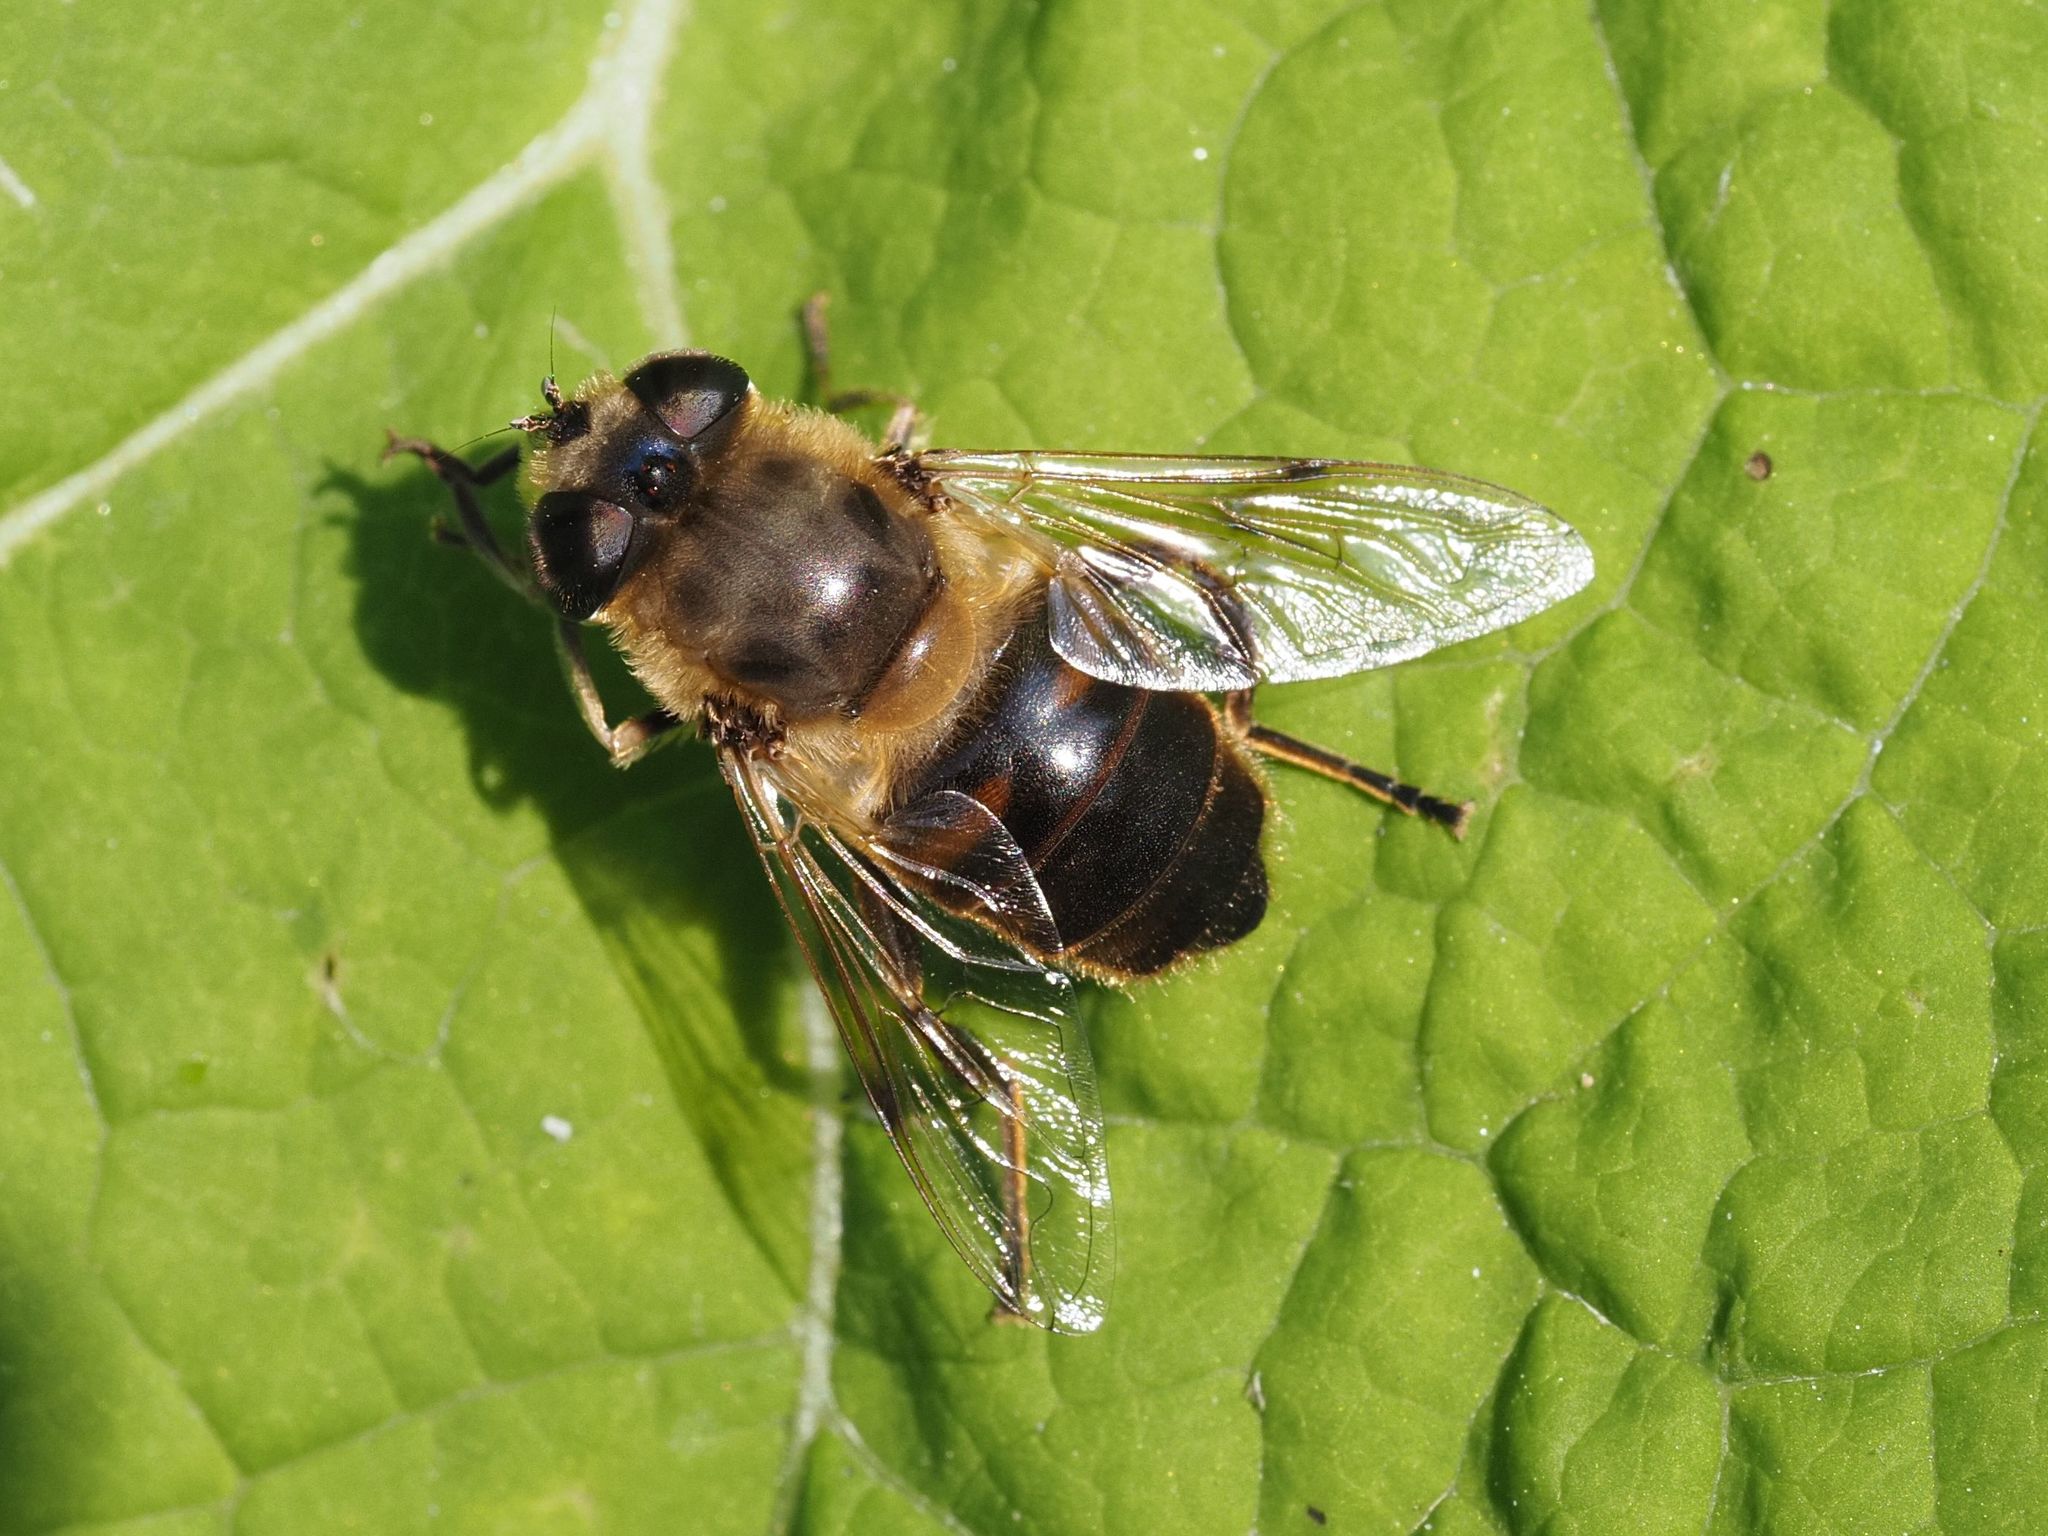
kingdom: Animalia
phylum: Arthropoda
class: Insecta
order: Diptera
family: Syrphidae
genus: Eristalis
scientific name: Eristalis tenax
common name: Drone fly
